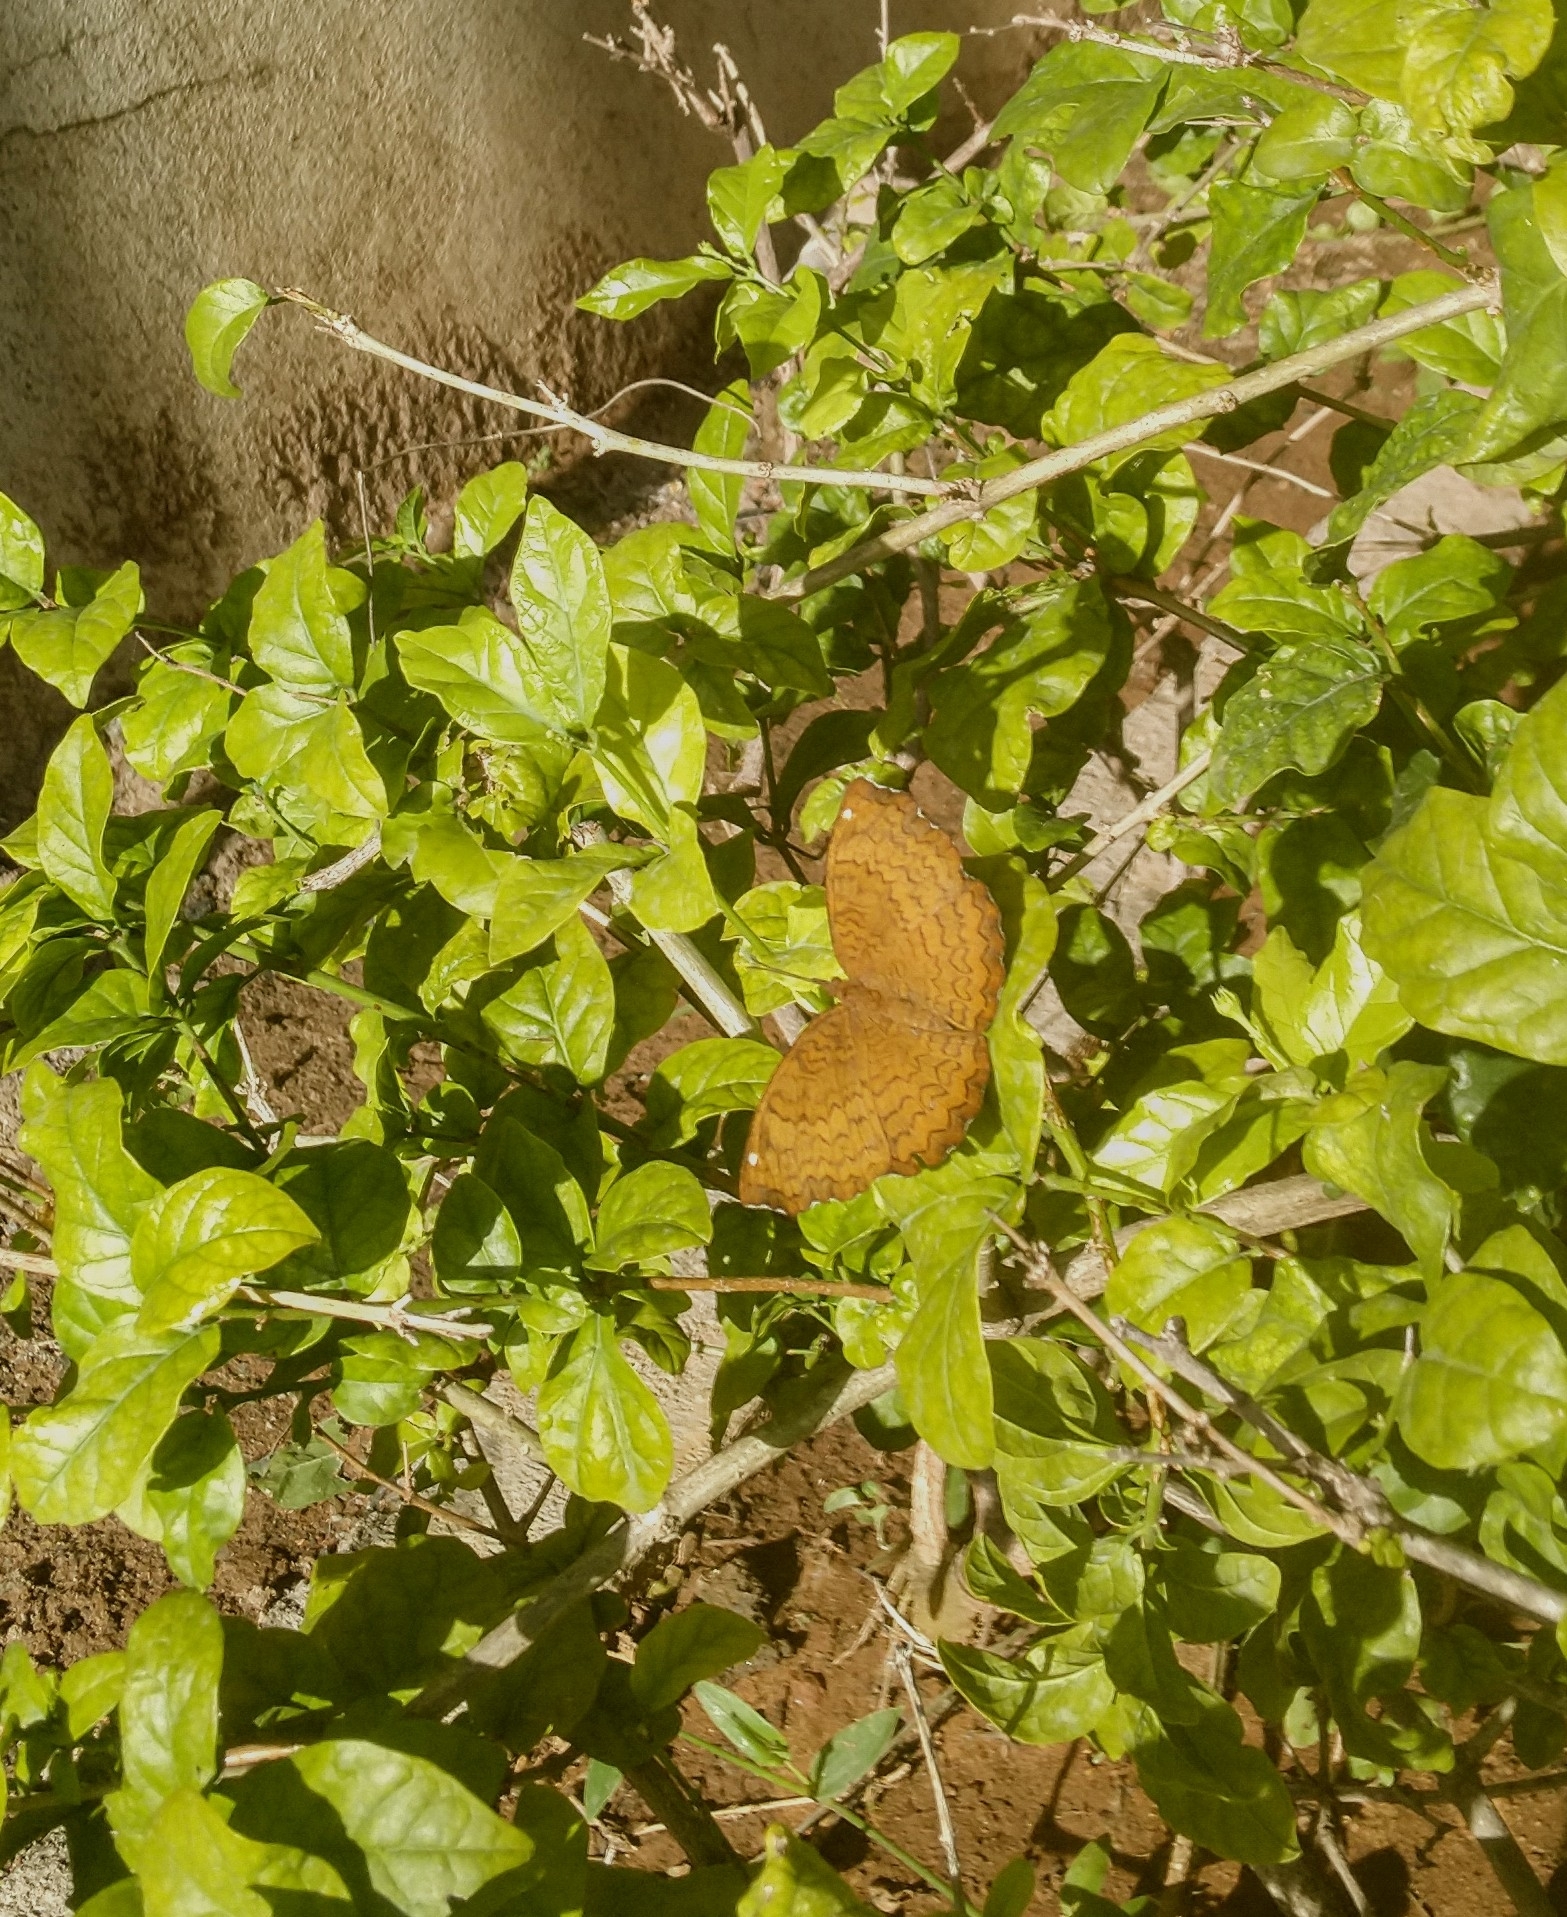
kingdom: Animalia
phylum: Arthropoda
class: Insecta
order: Lepidoptera
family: Nymphalidae
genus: Ariadne
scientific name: Ariadne merione
